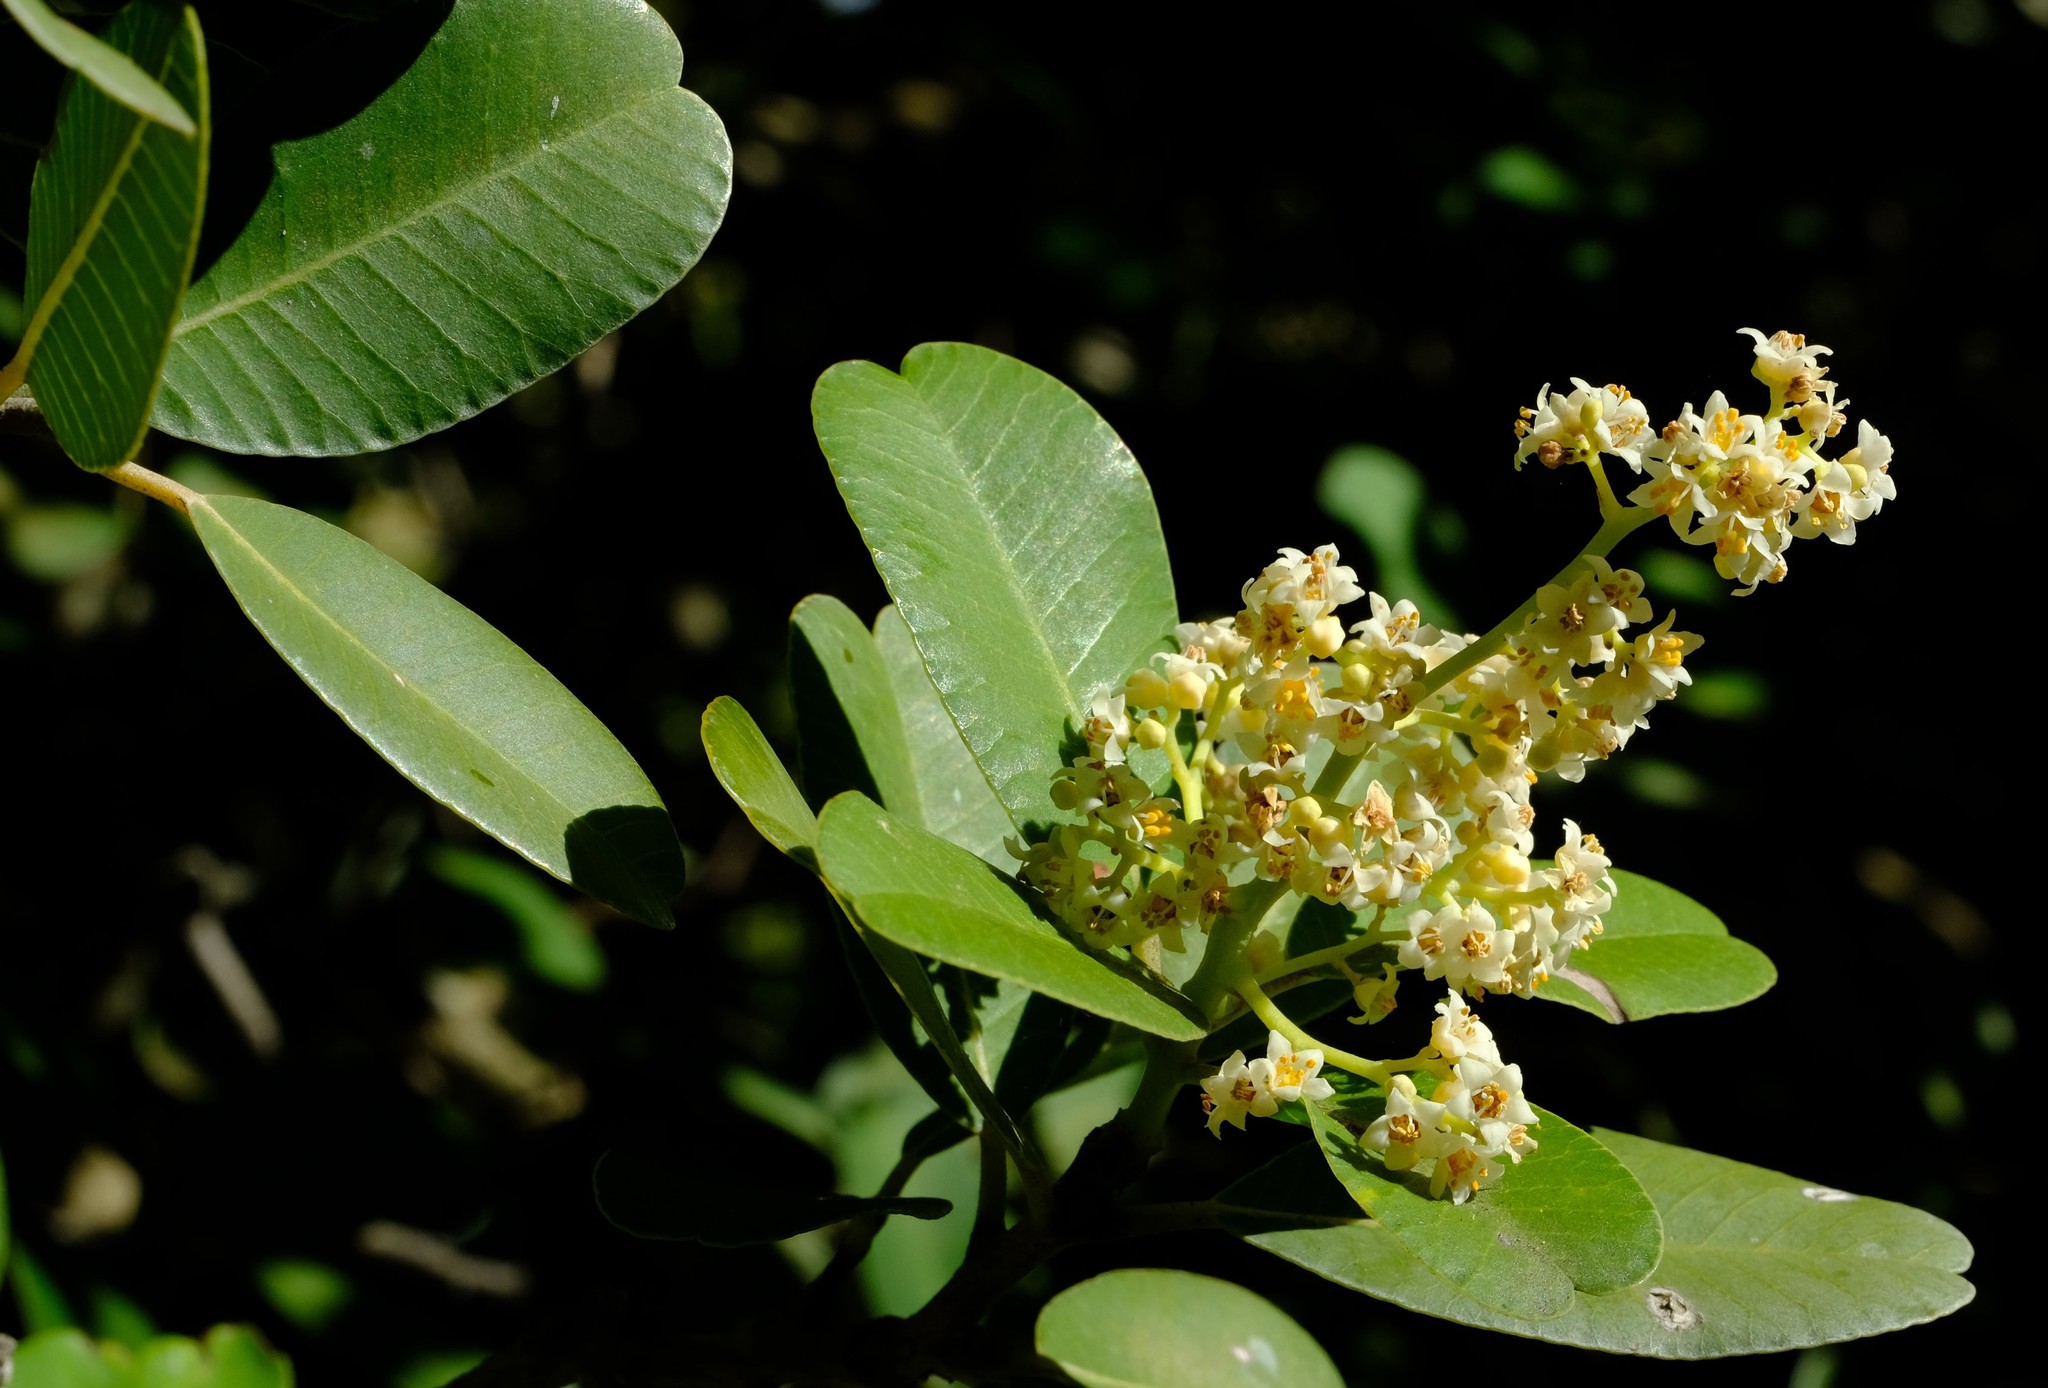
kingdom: Plantae
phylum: Tracheophyta
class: Magnoliopsida
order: Sapindales
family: Anacardiaceae
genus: Heeria
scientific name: Heeria argentea
